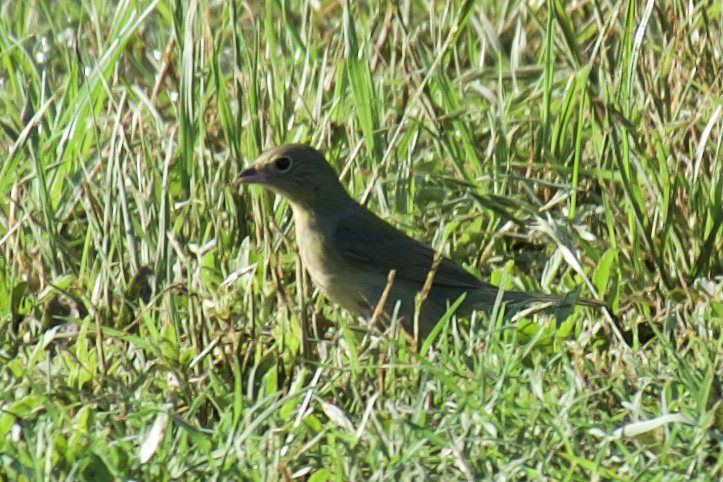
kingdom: Animalia
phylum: Chordata
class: Aves
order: Passeriformes
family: Cardinalidae
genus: Passerina
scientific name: Passerina ciris
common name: Painted bunting
